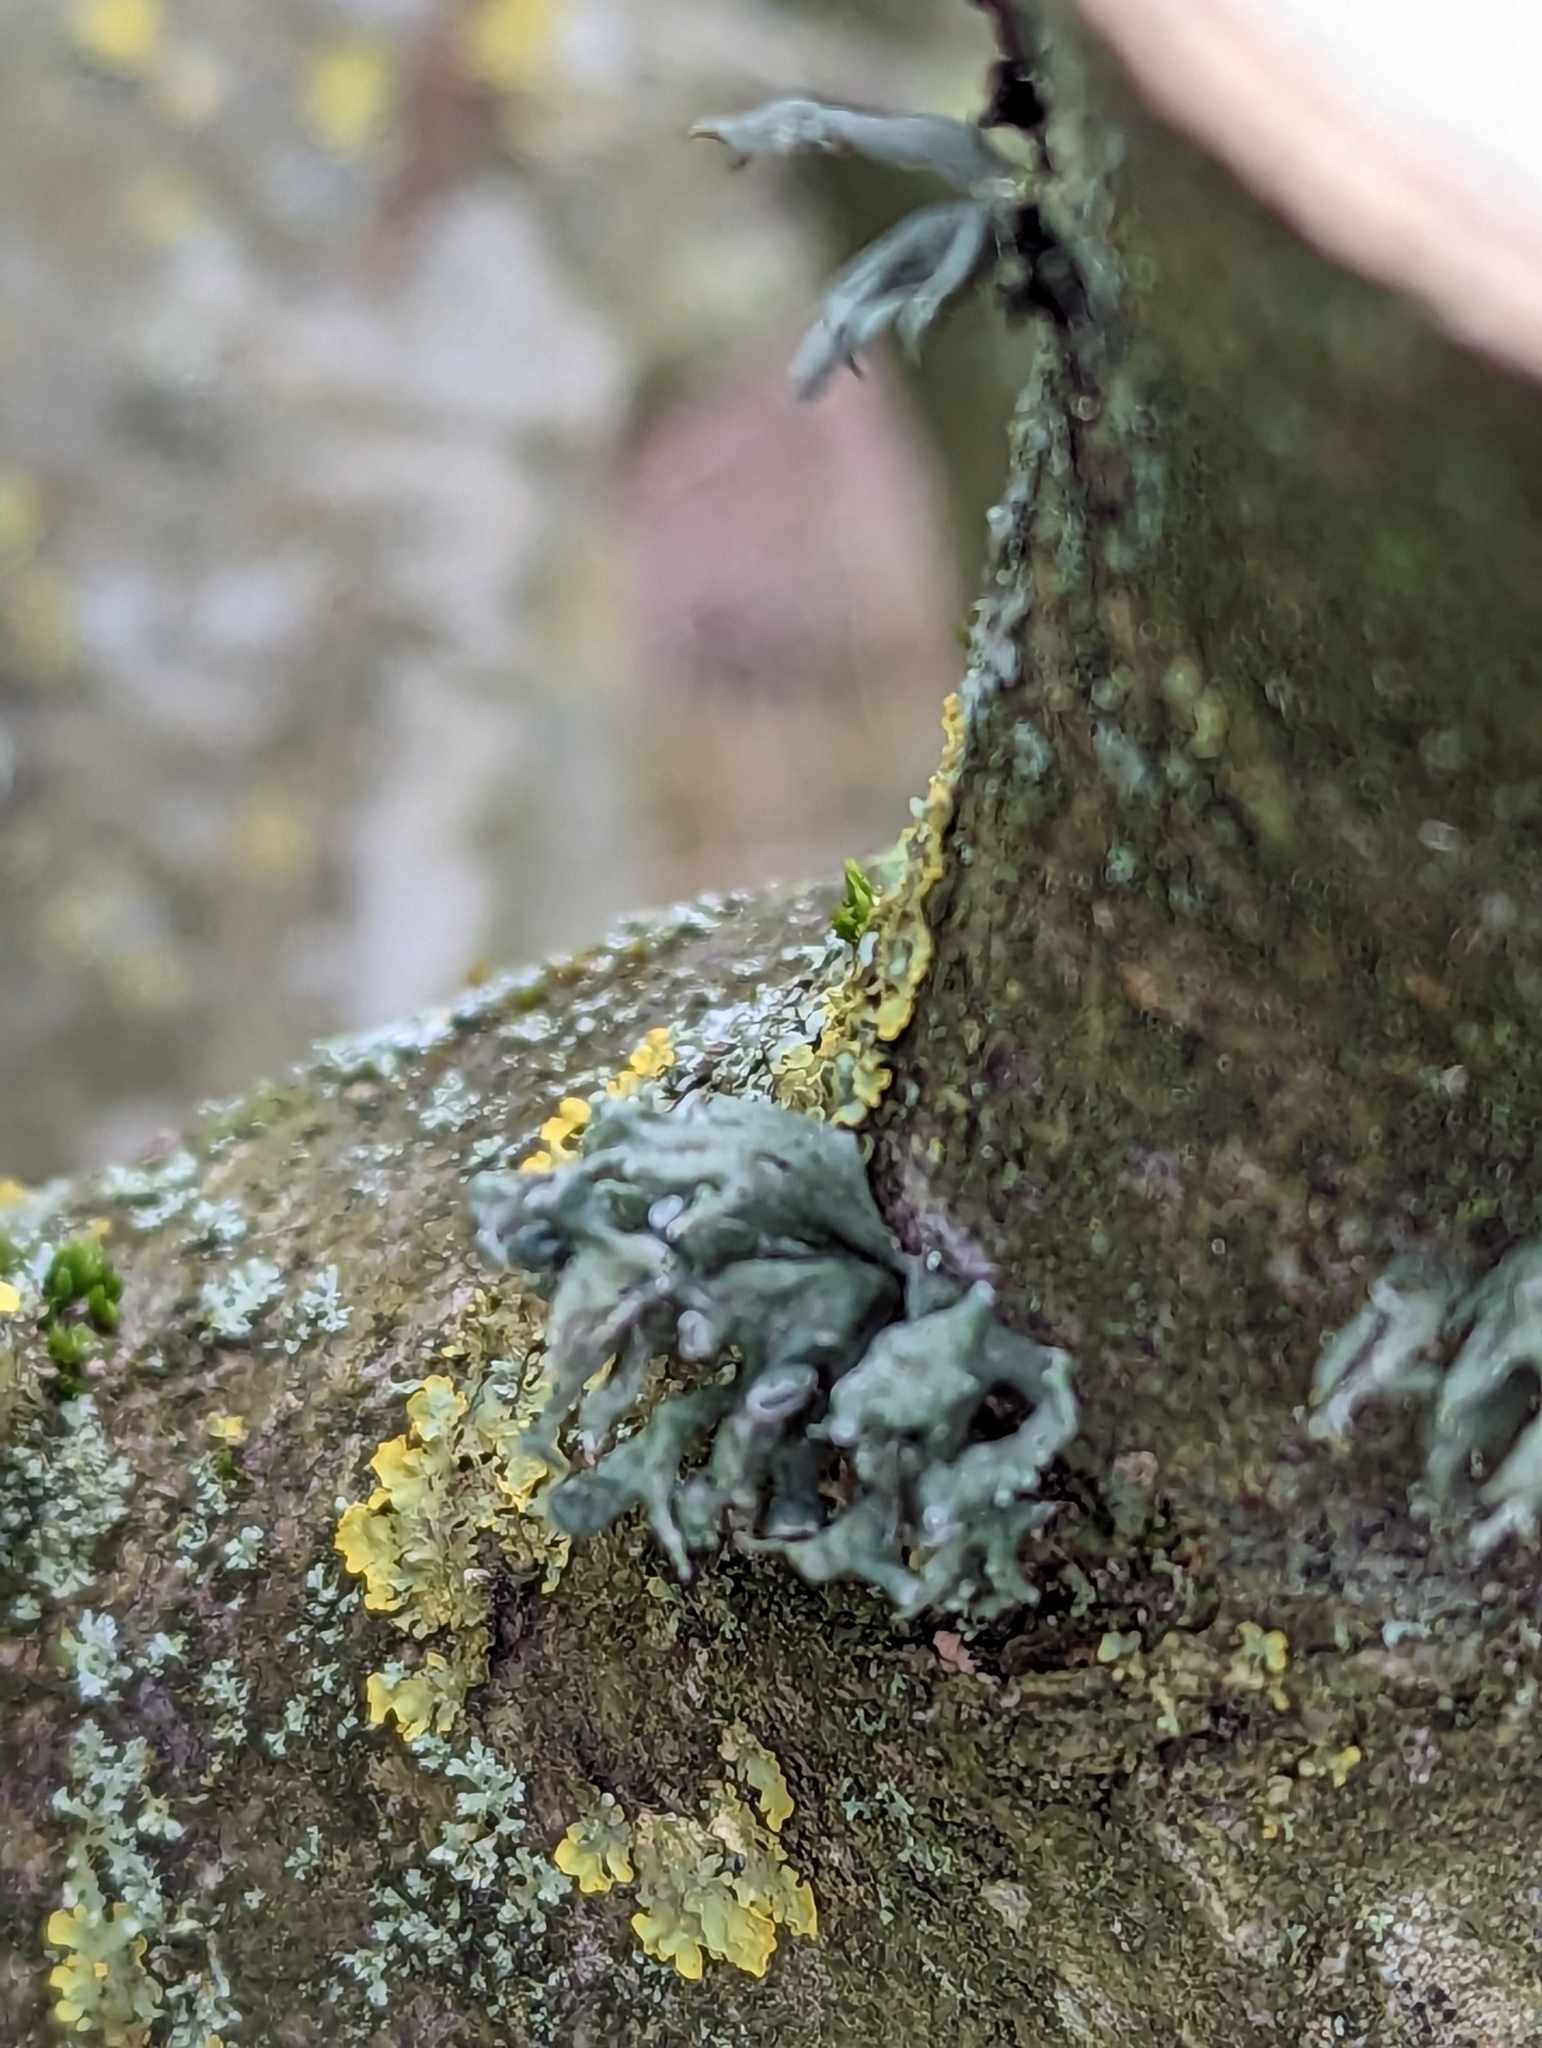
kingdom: Fungi
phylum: Ascomycota
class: Lecanoromycetes
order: Lecanorales
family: Ramalinaceae
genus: Ramalina
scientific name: Ramalina fastigiata
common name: Dotted ribbon lichen
